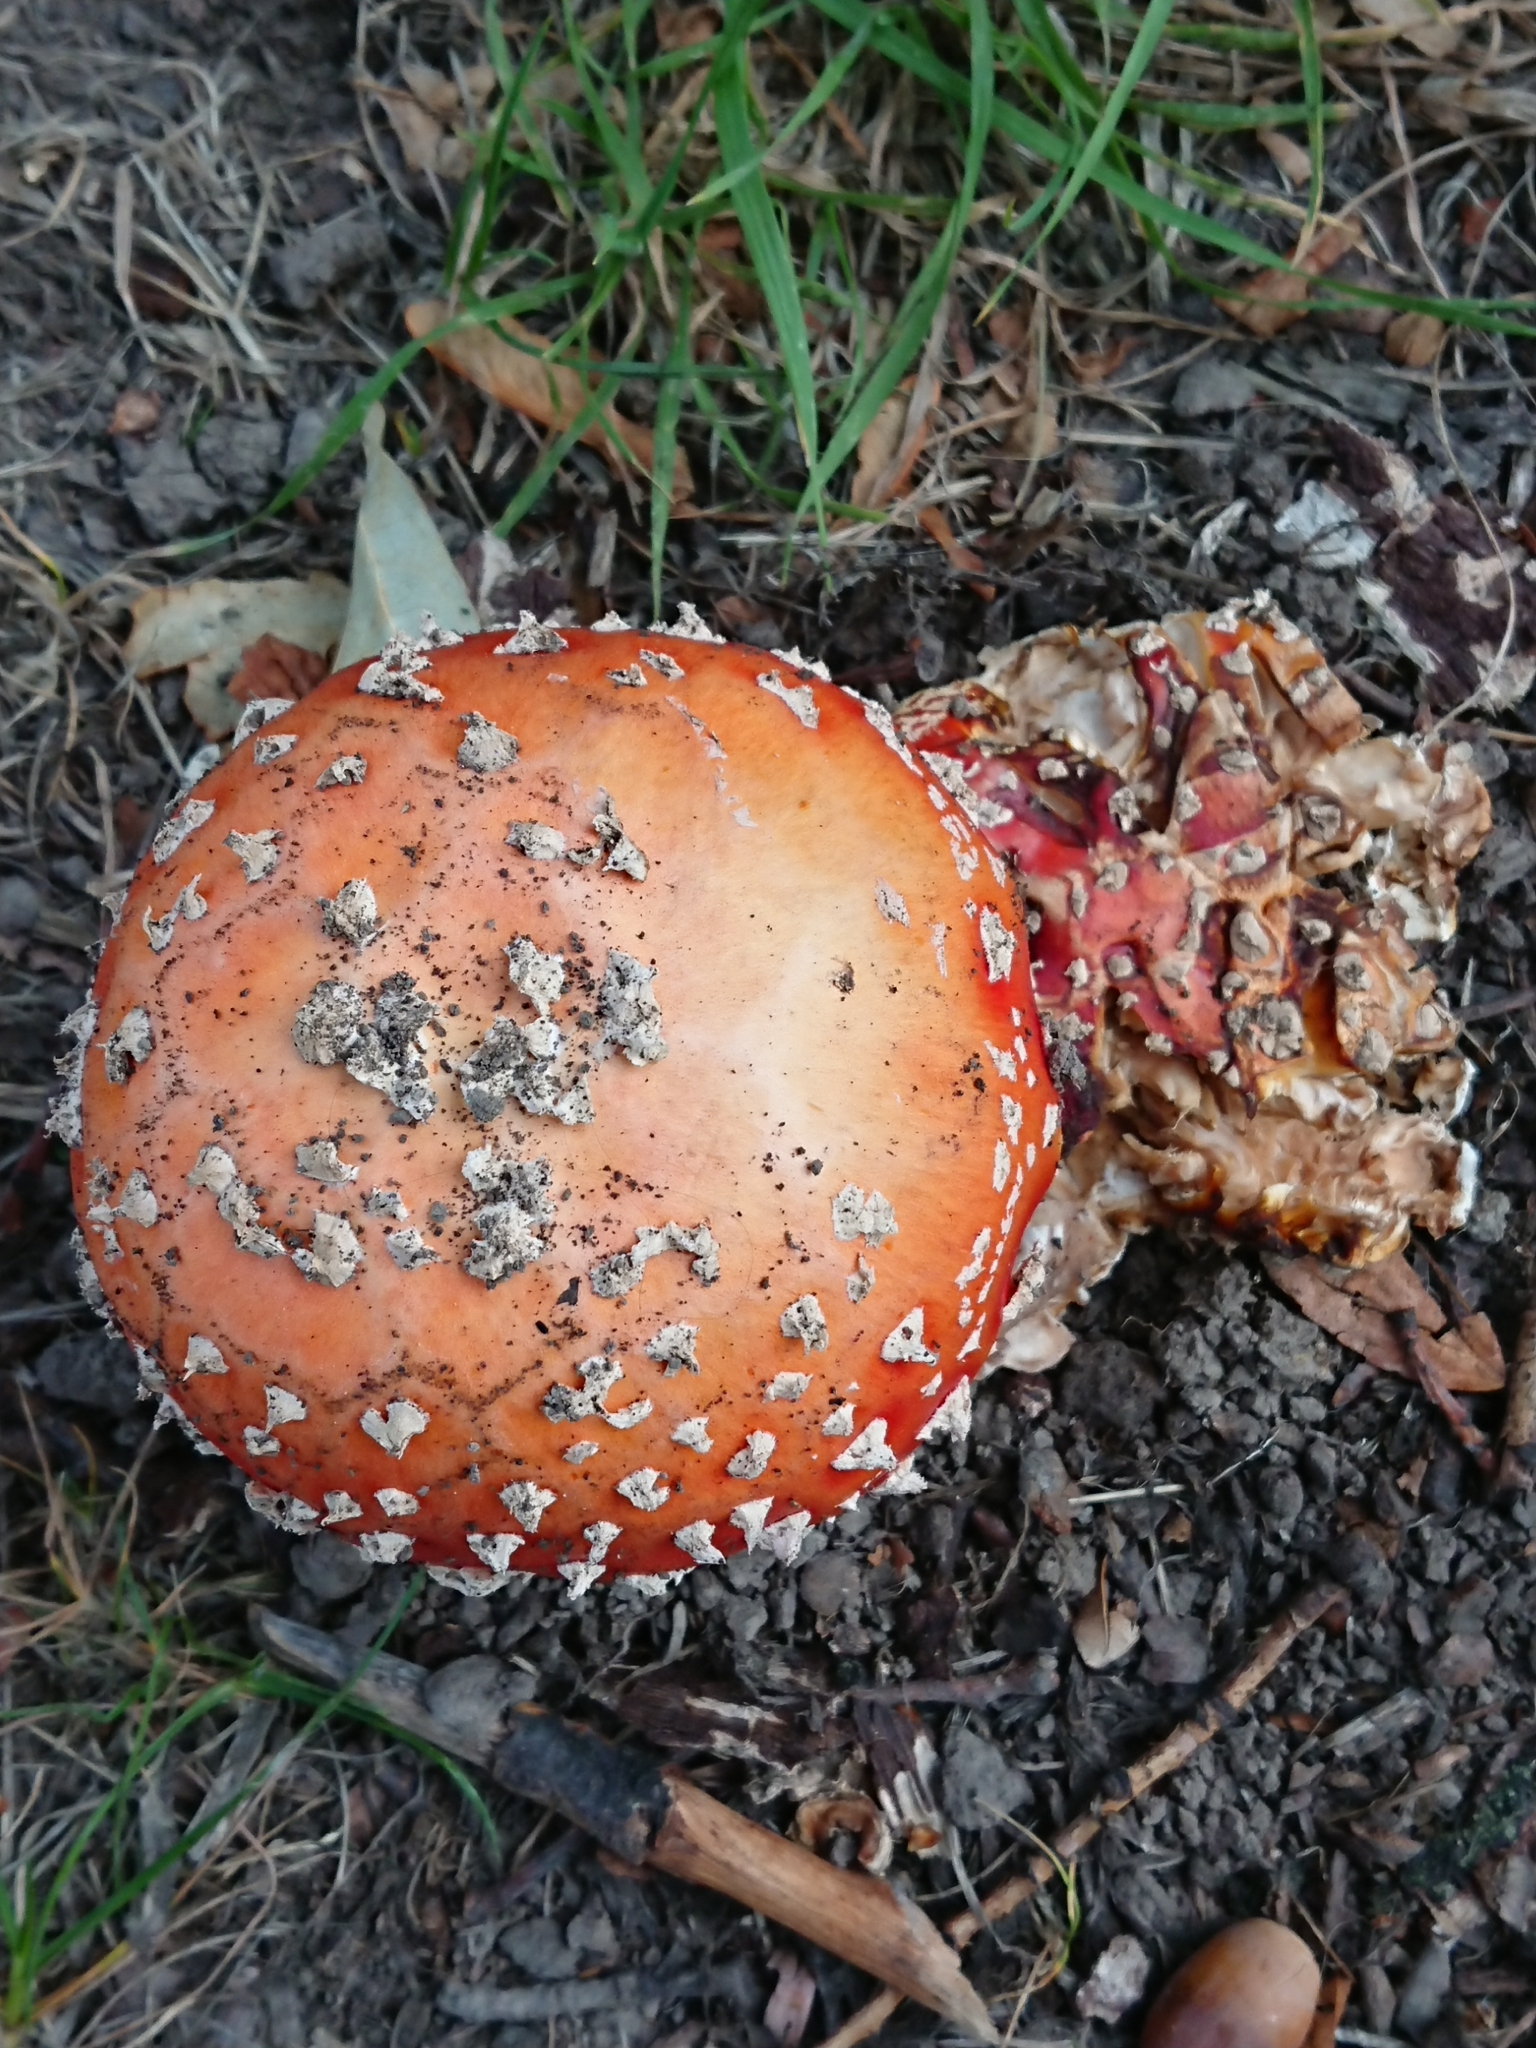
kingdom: Fungi
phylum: Basidiomycota
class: Agaricomycetes
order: Agaricales
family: Amanitaceae
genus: Amanita
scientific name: Amanita muscaria
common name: Fly agaric
